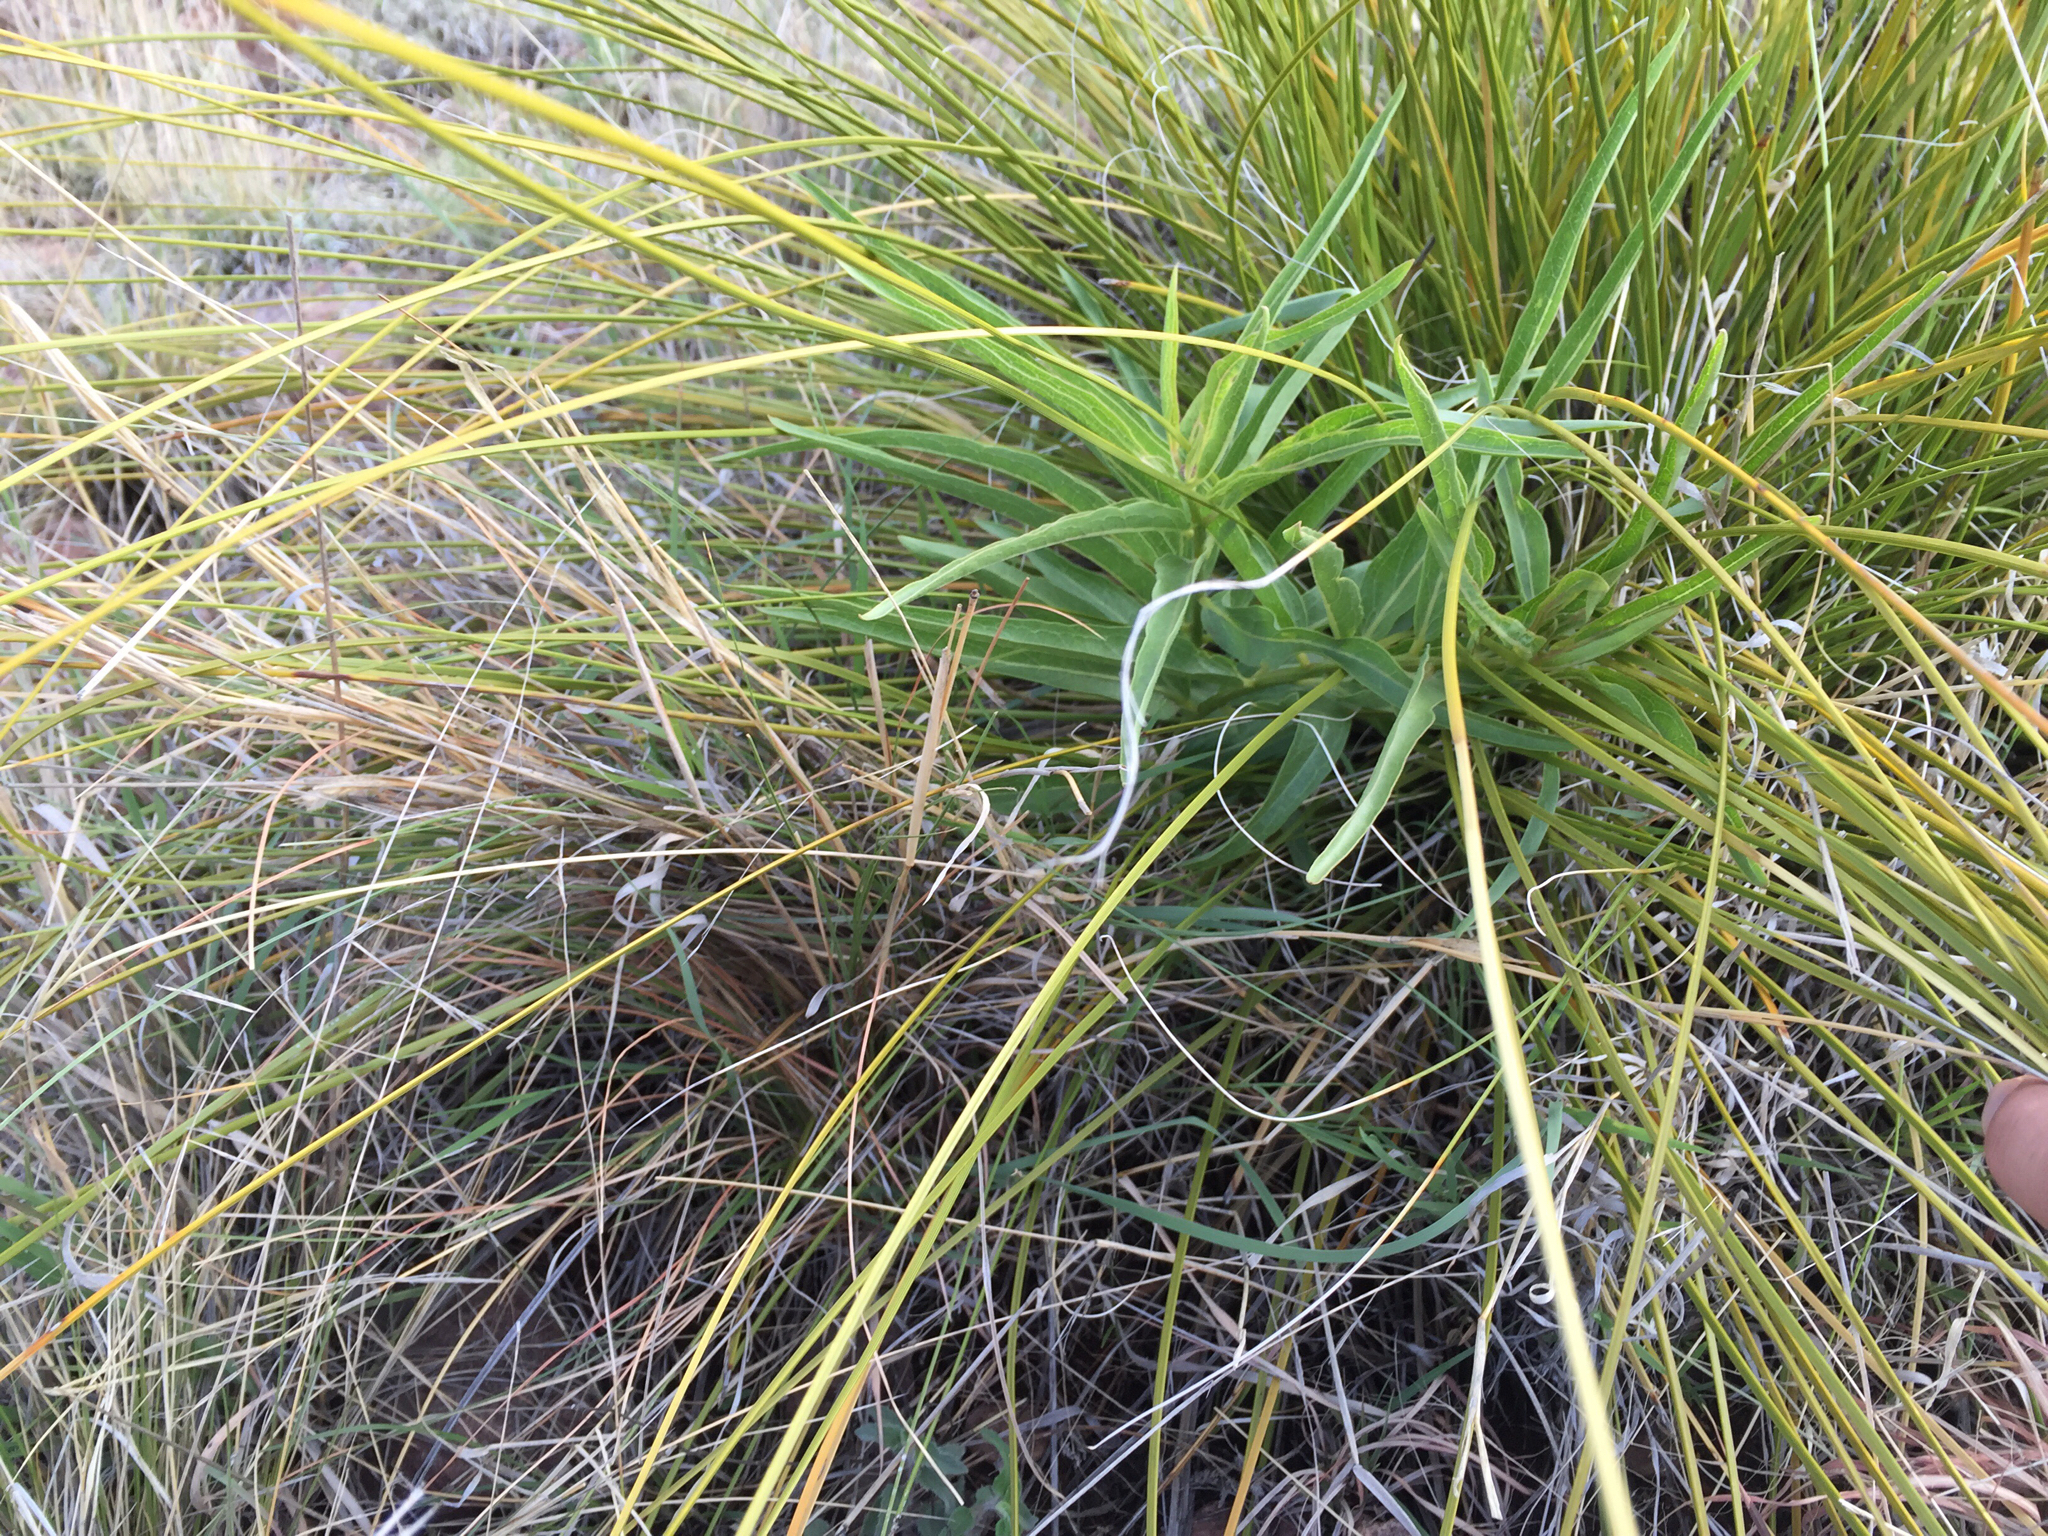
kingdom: Plantae
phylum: Tracheophyta
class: Magnoliopsida
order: Gentianales
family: Apocynaceae
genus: Asclepias
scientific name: Asclepias asperula
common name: Antelope horns
